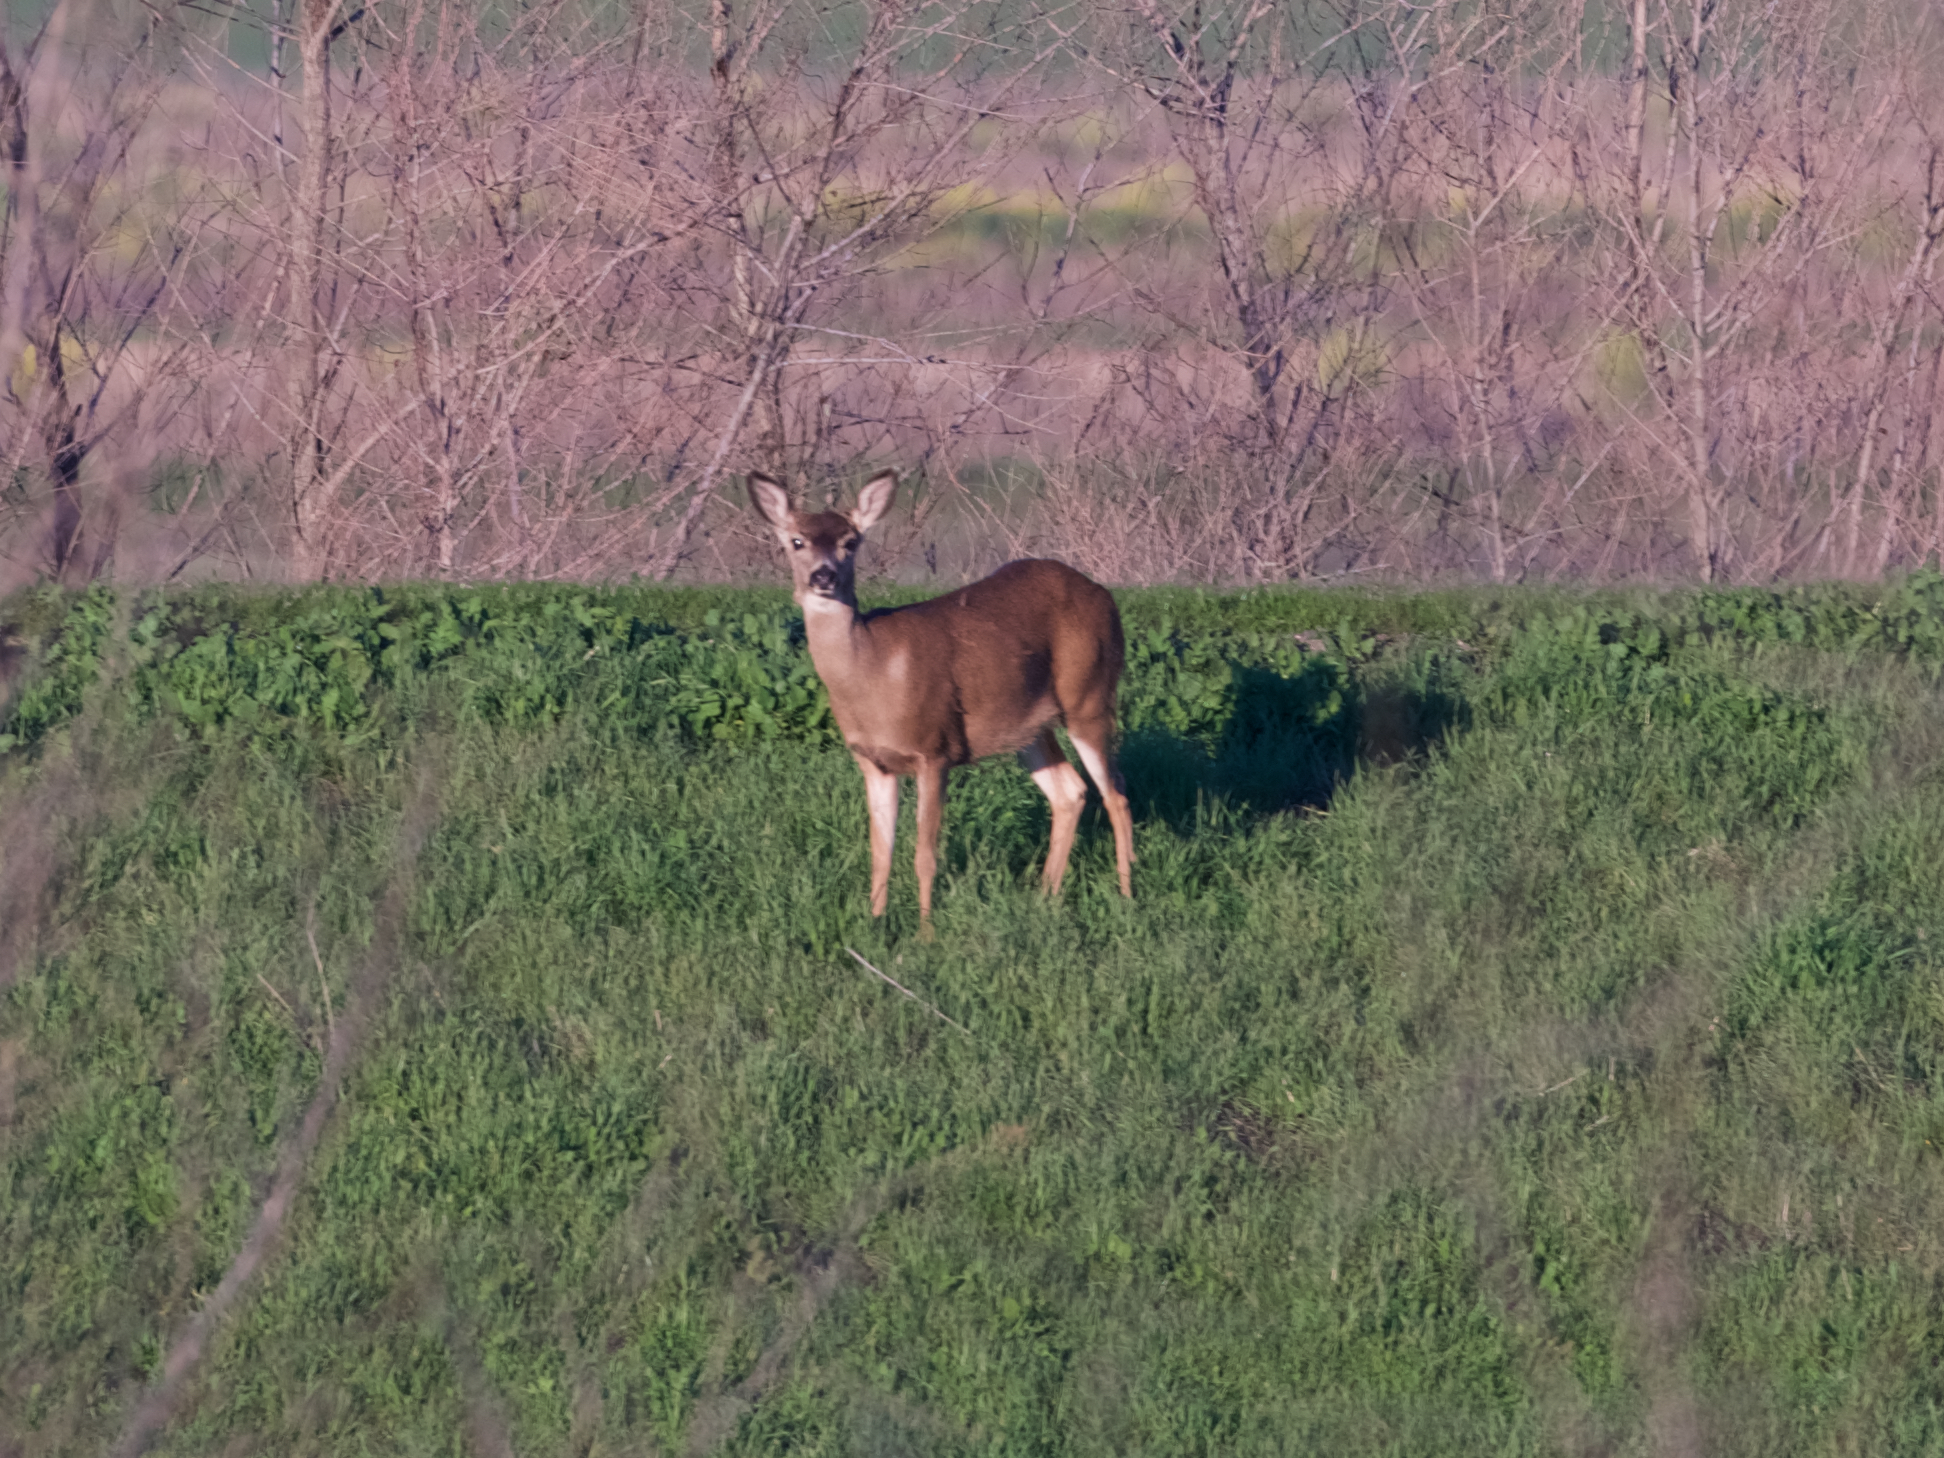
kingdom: Animalia
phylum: Chordata
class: Mammalia
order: Artiodactyla
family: Cervidae
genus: Odocoileus
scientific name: Odocoileus hemionus
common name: Mule deer
